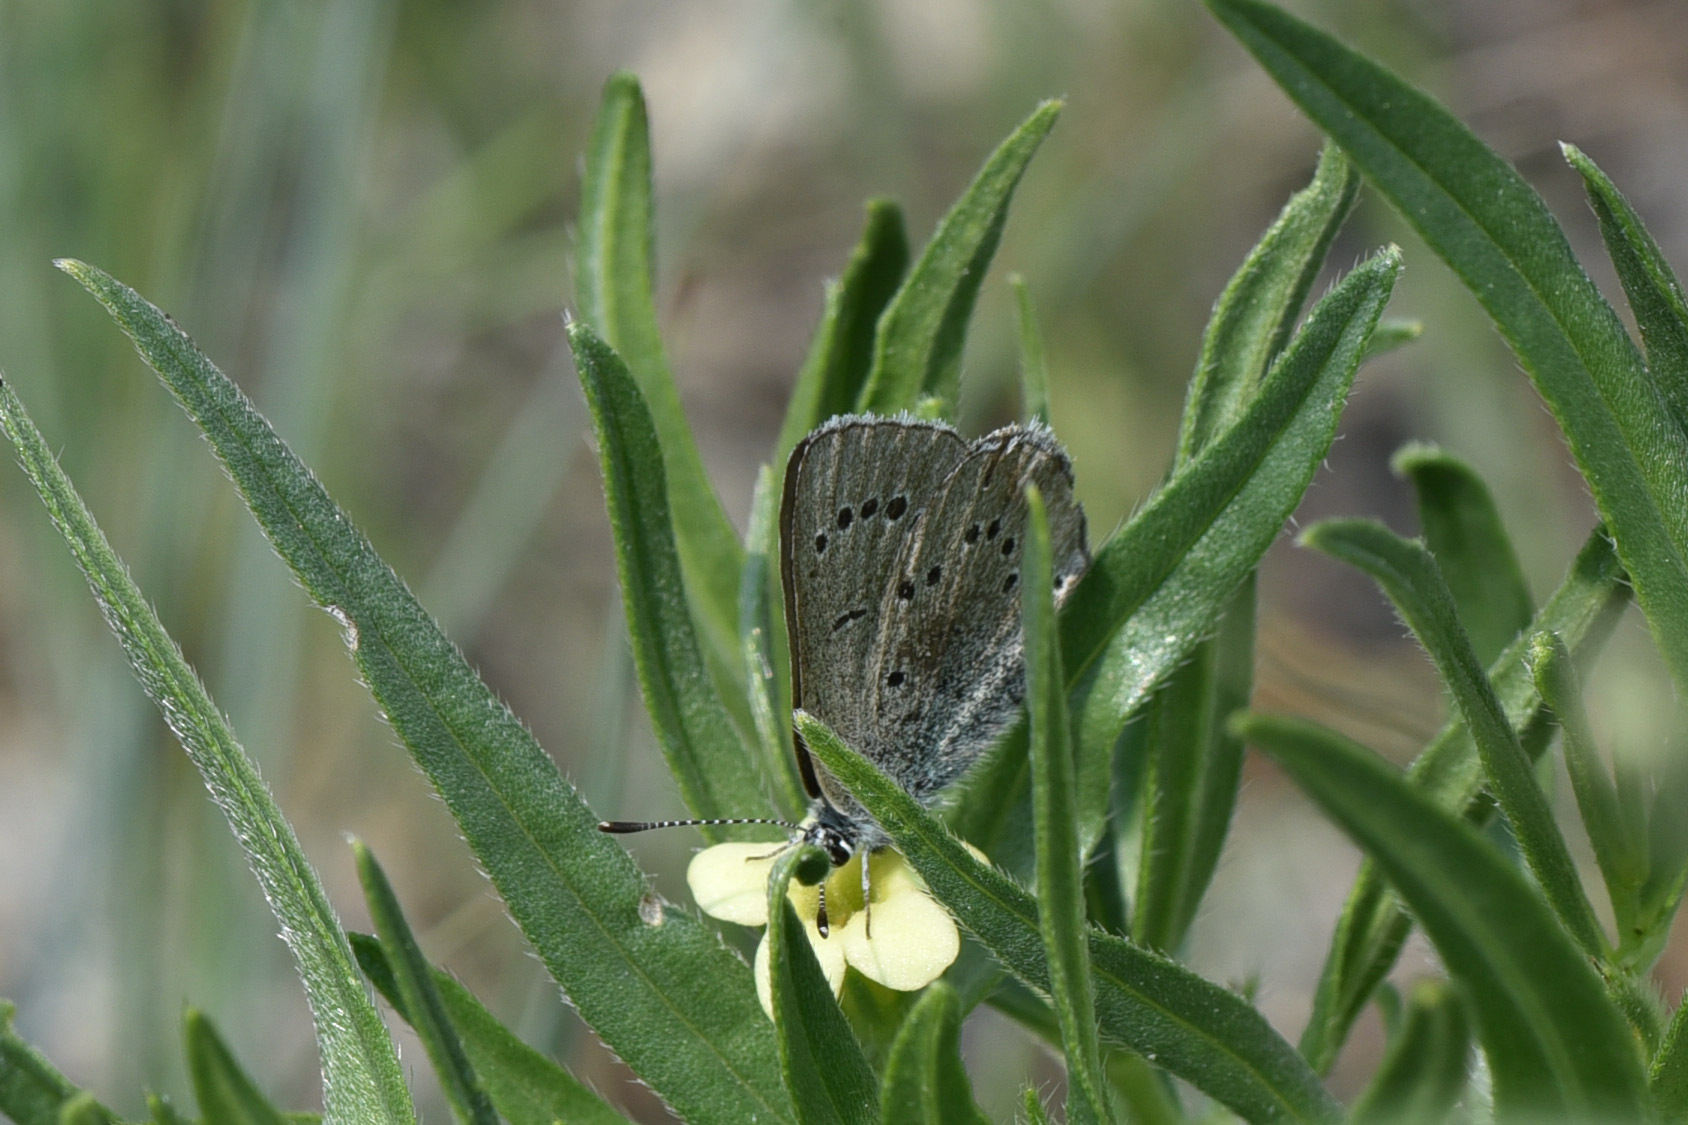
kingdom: Animalia
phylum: Arthropoda
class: Insecta
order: Lepidoptera
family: Lycaenidae
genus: Icaricia
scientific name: Icaricia icarioides
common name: Boisduval's blue
